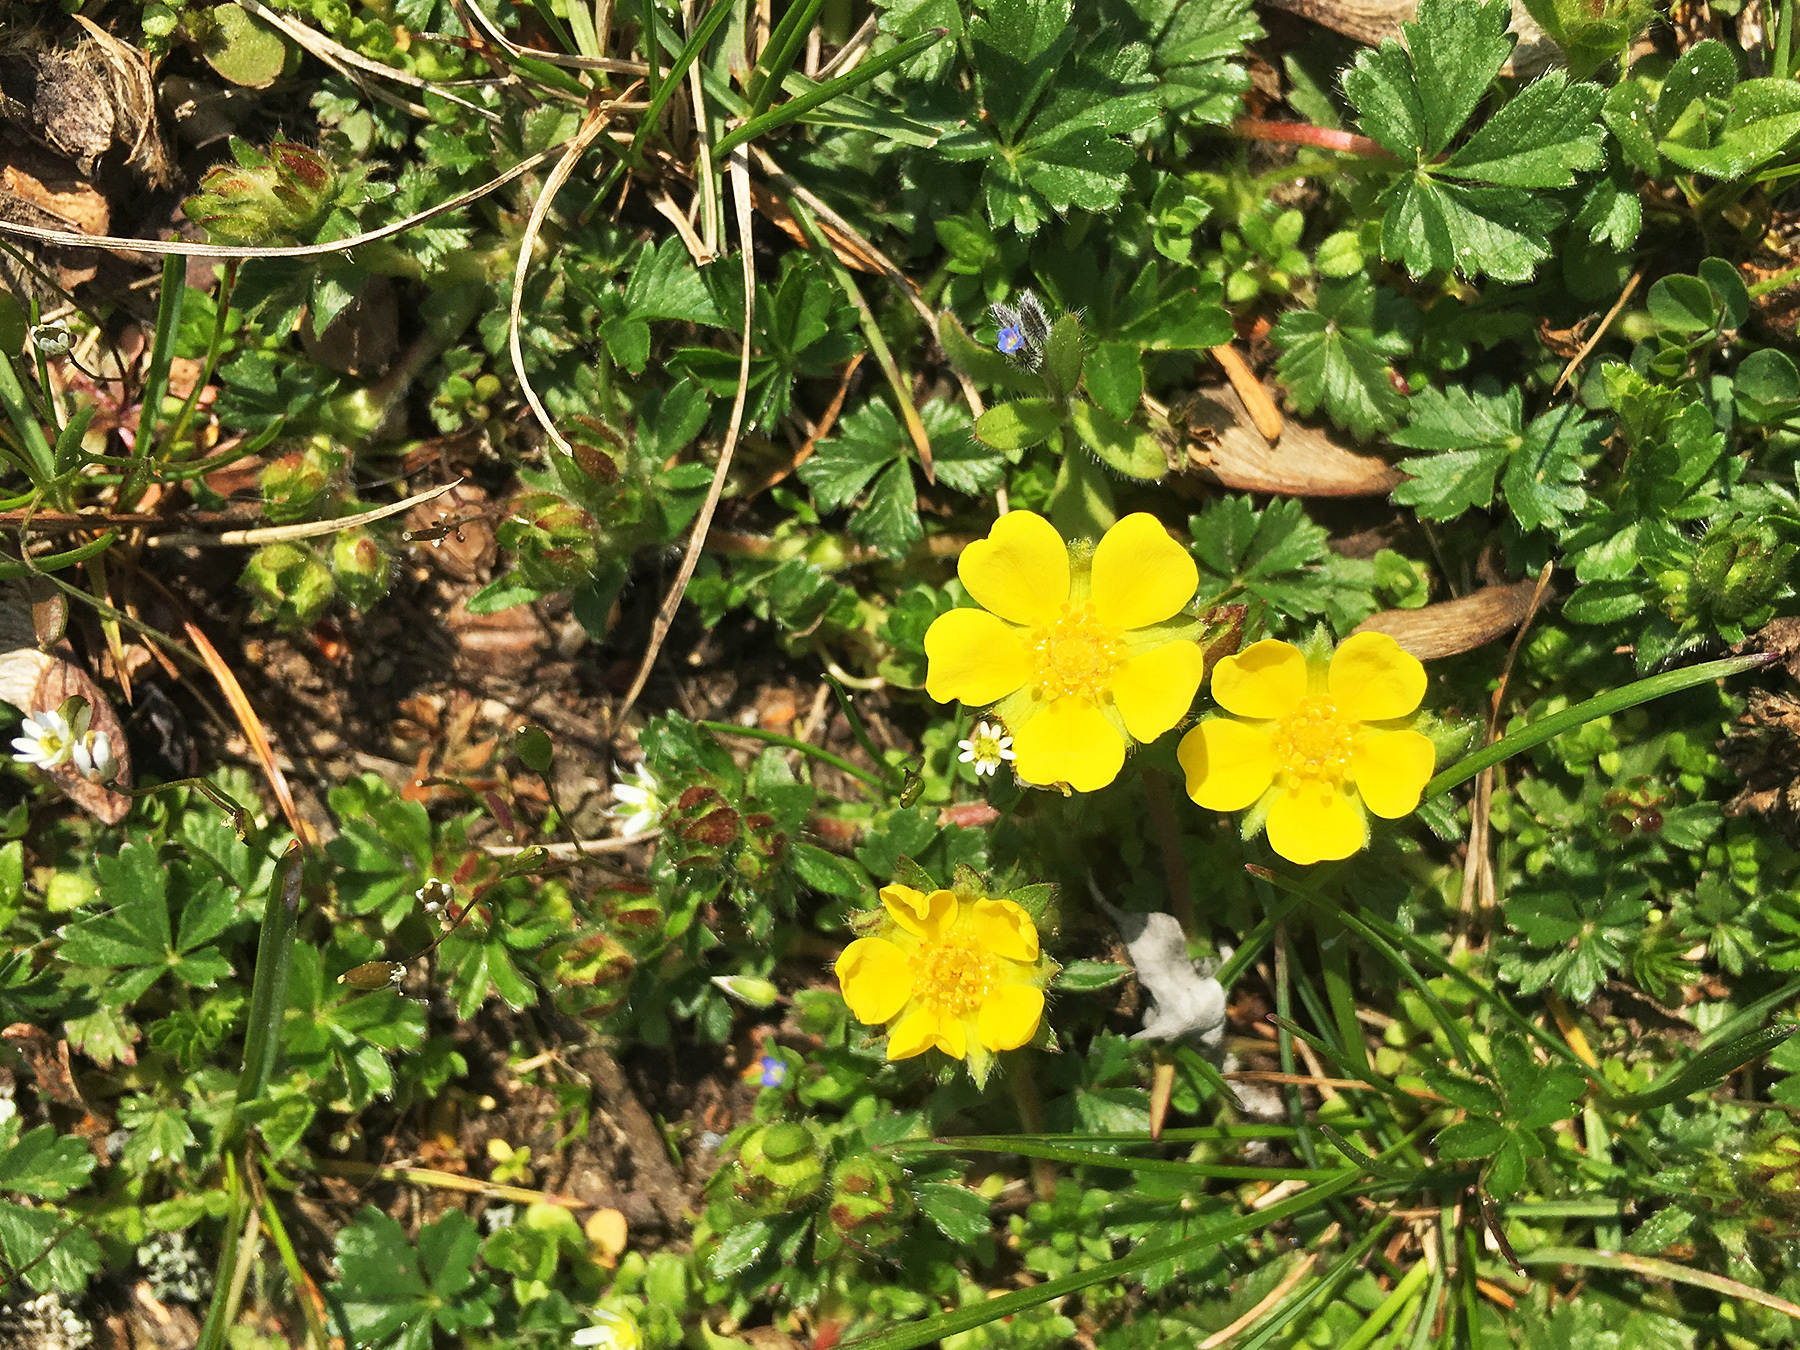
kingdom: Plantae
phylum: Tracheophyta
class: Magnoliopsida
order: Rosales
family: Rosaceae
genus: Potentilla
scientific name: Potentilla verna
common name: Spring cinquefoil
